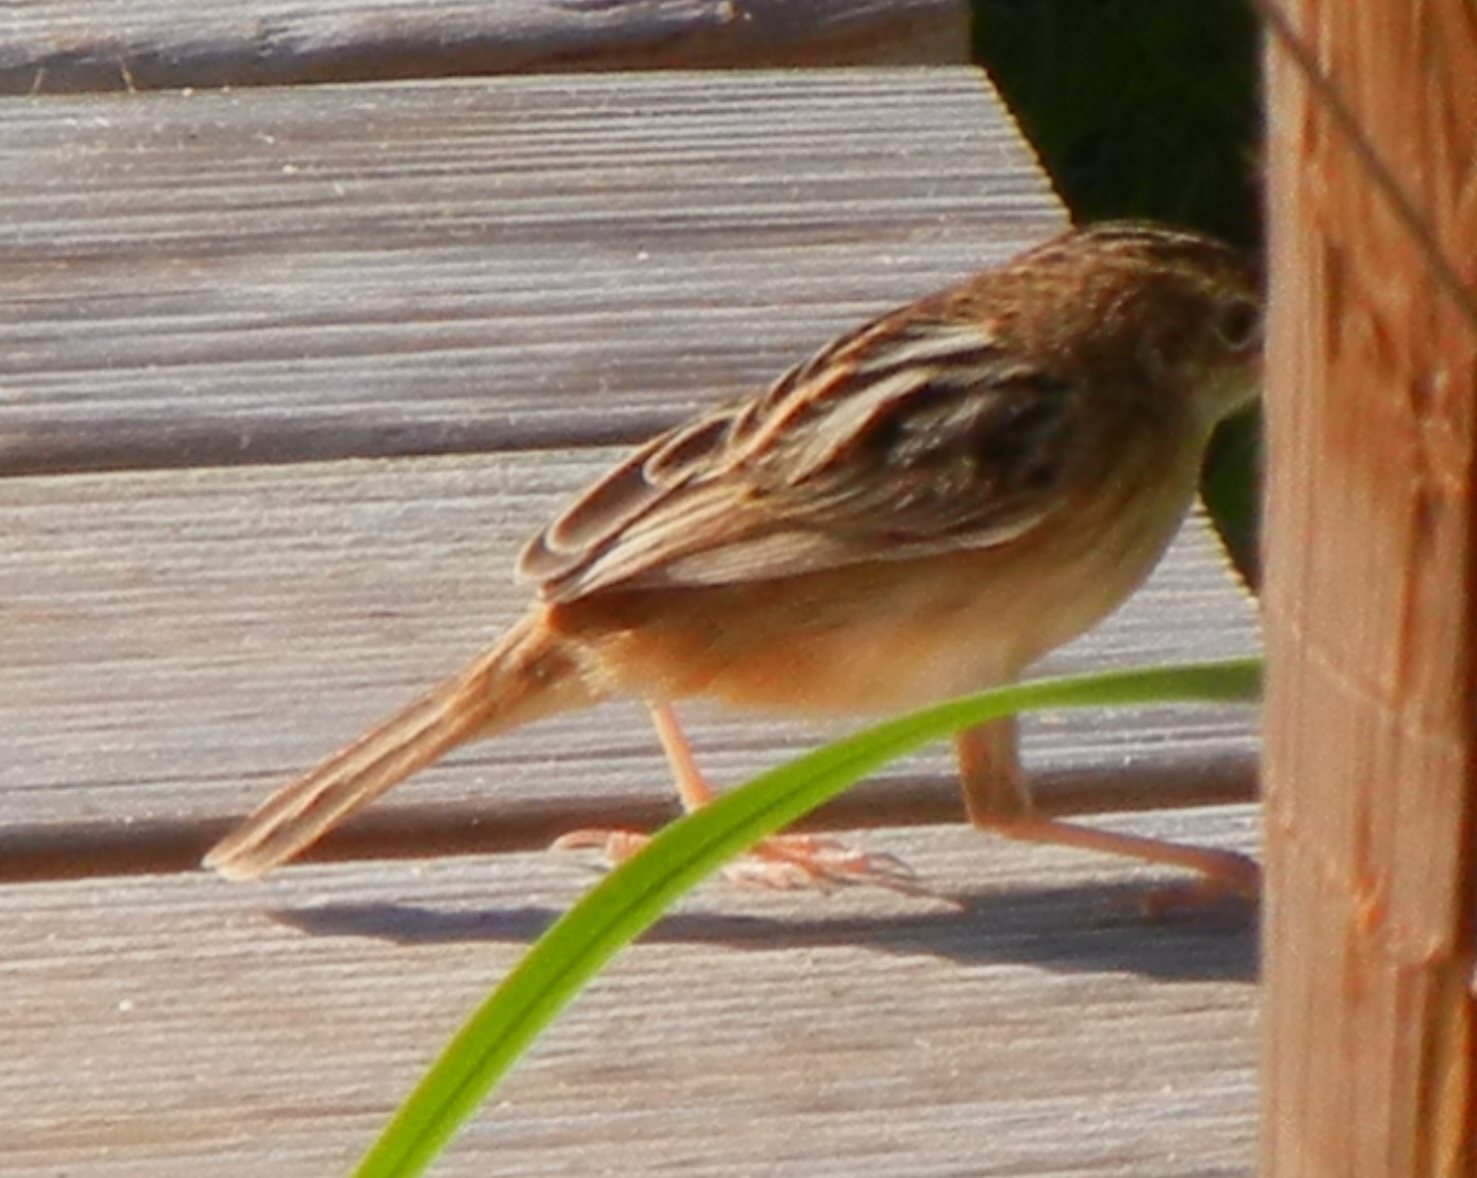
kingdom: Animalia
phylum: Chordata
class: Aves
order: Passeriformes
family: Cisticolidae
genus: Cisticola
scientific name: Cisticola juncidis
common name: Zitting cisticola
